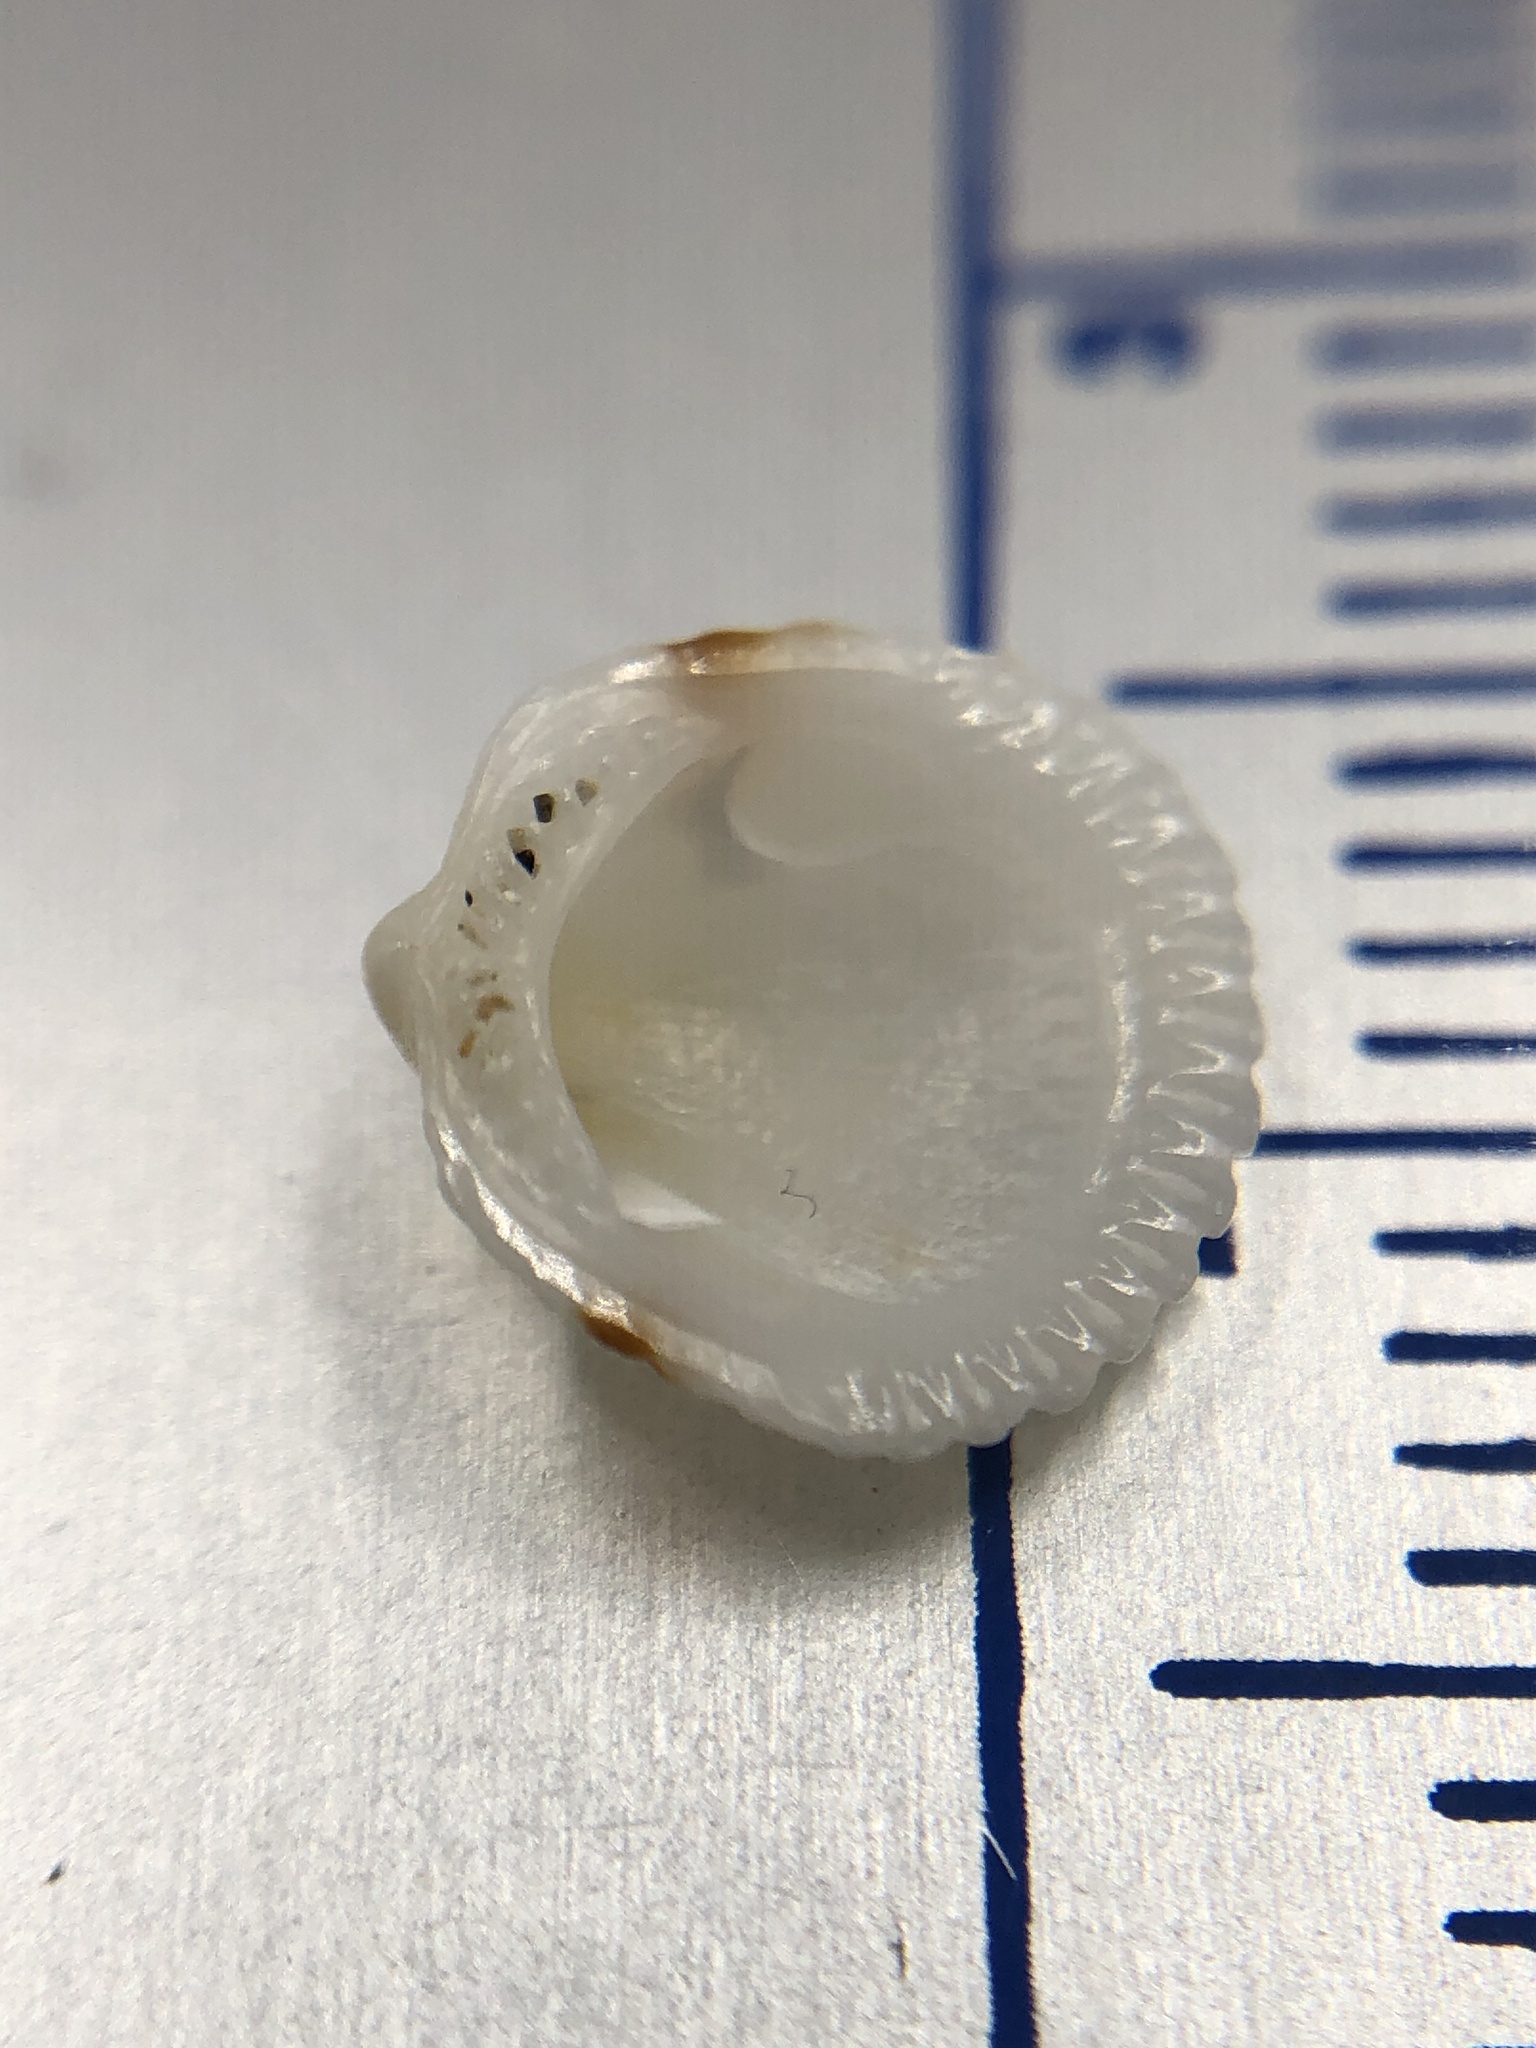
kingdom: Animalia
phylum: Mollusca
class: Bivalvia
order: Arcida
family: Glycymerididae
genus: Tucetona
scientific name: Tucetona pectinata
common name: Comb bittersweet
